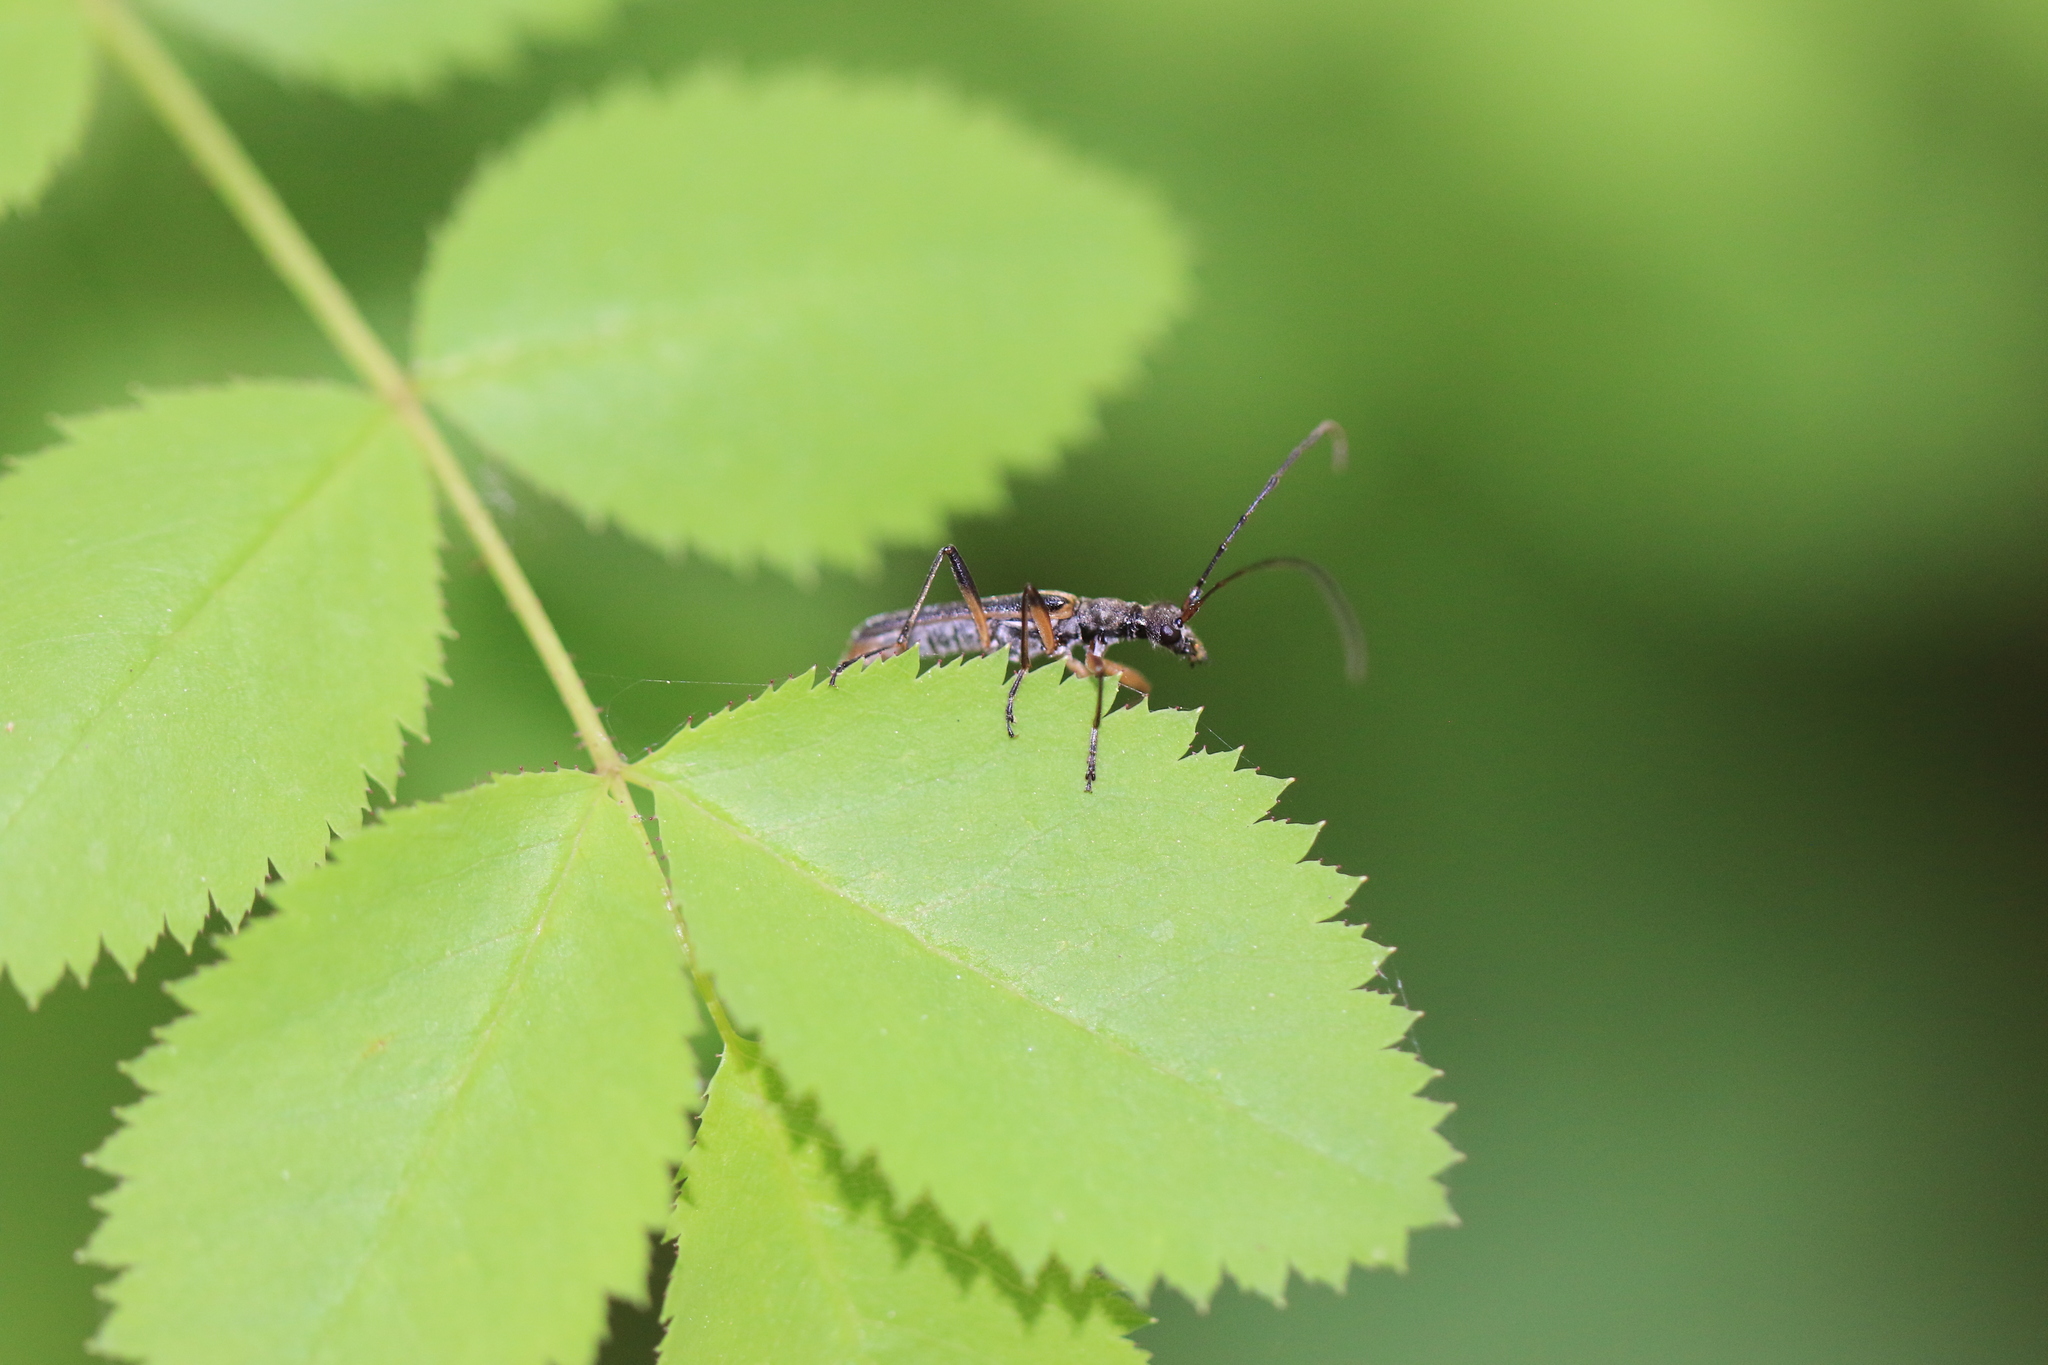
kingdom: Animalia
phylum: Arthropoda
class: Insecta
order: Coleoptera
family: Cerambycidae
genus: Leptalia
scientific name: Leptalia macilenta
